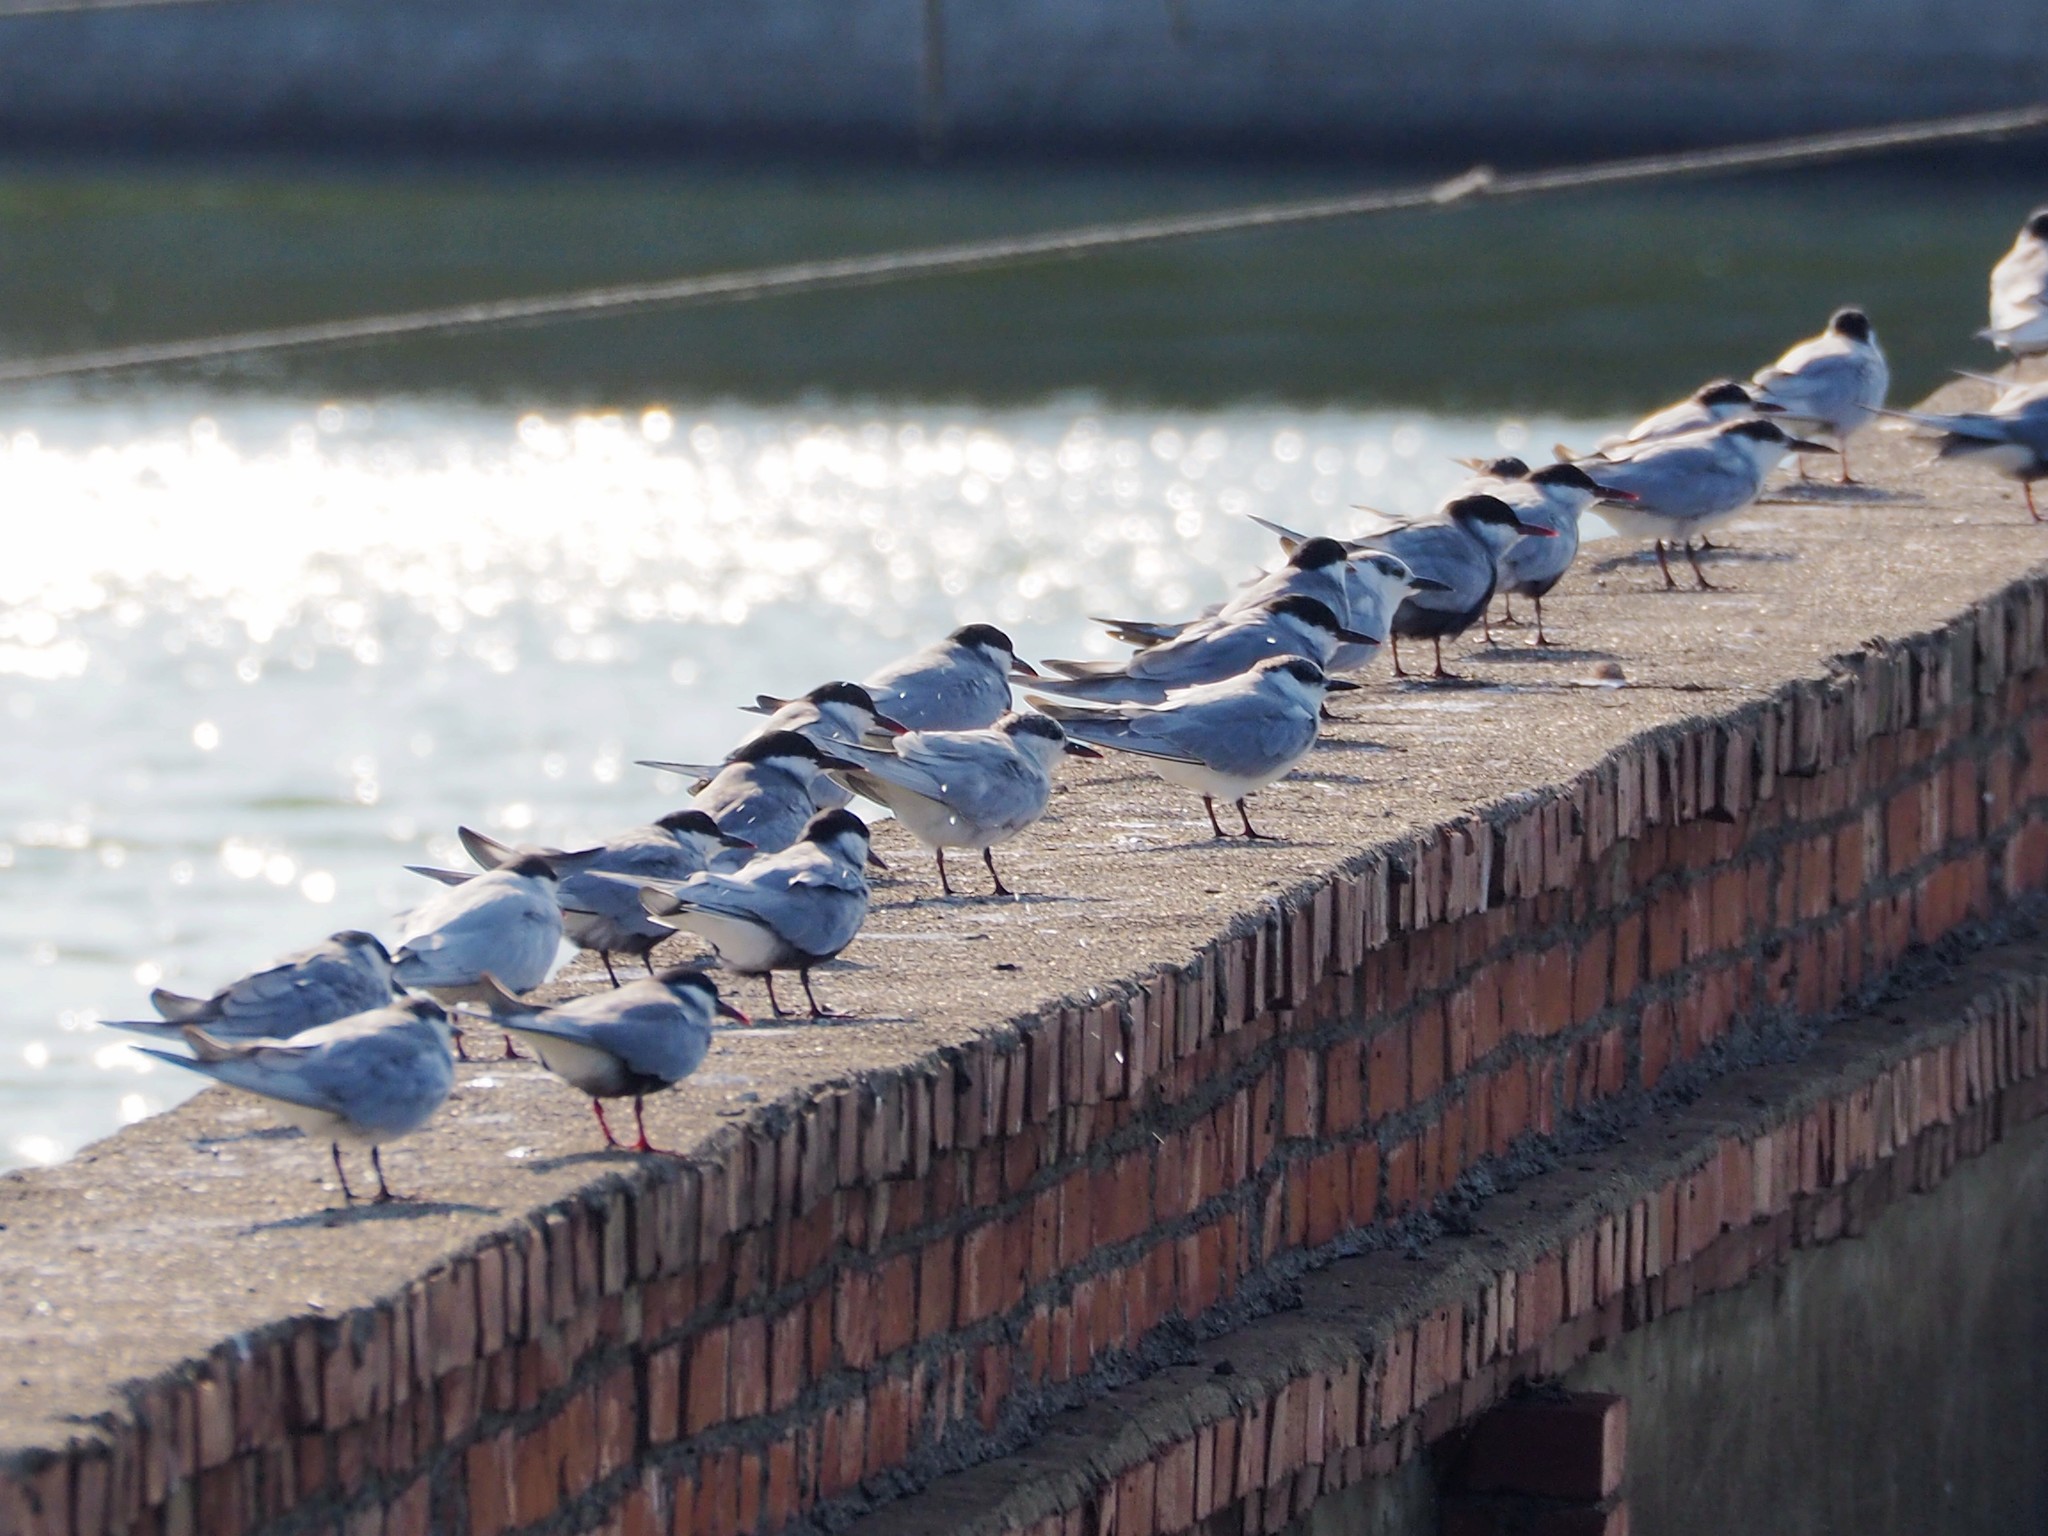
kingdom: Animalia
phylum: Chordata
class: Aves
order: Charadriiformes
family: Laridae
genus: Chlidonias
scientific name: Chlidonias hybrida
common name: Whiskered tern
